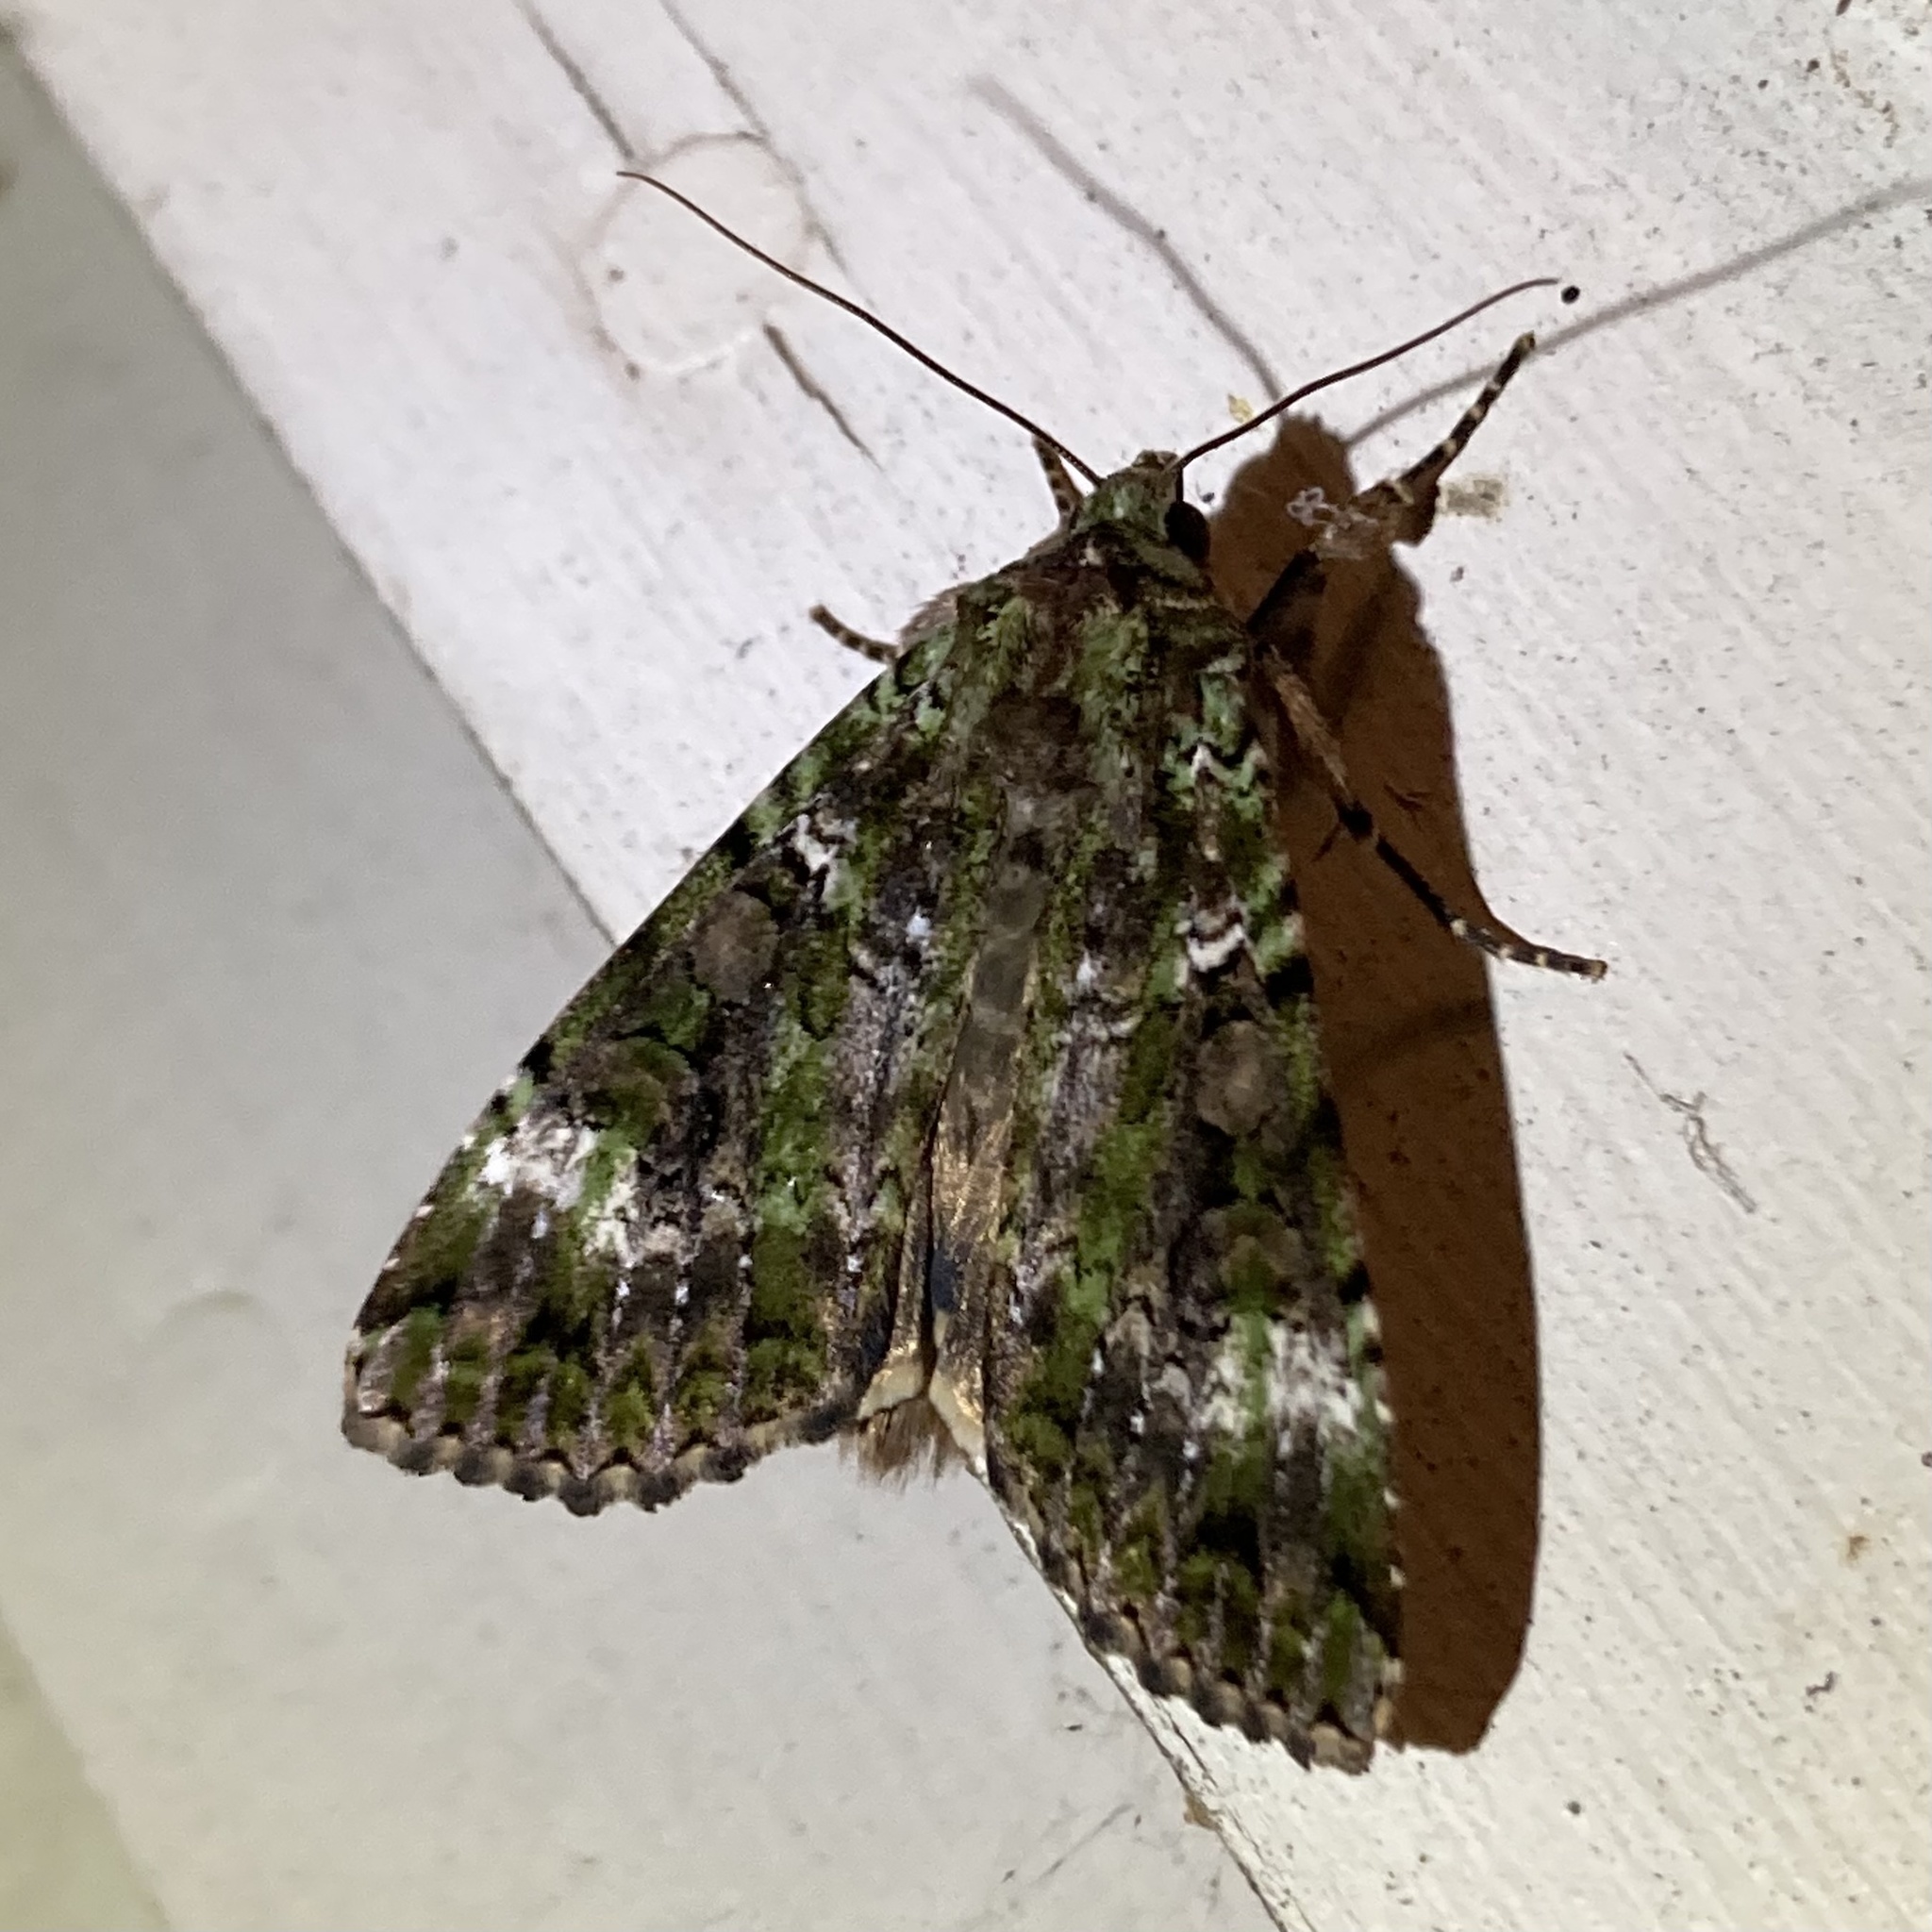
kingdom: Animalia
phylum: Arthropoda
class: Insecta
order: Lepidoptera
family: Noctuidae
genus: Anaplectoides
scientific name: Anaplectoides prasina
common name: Green arches
